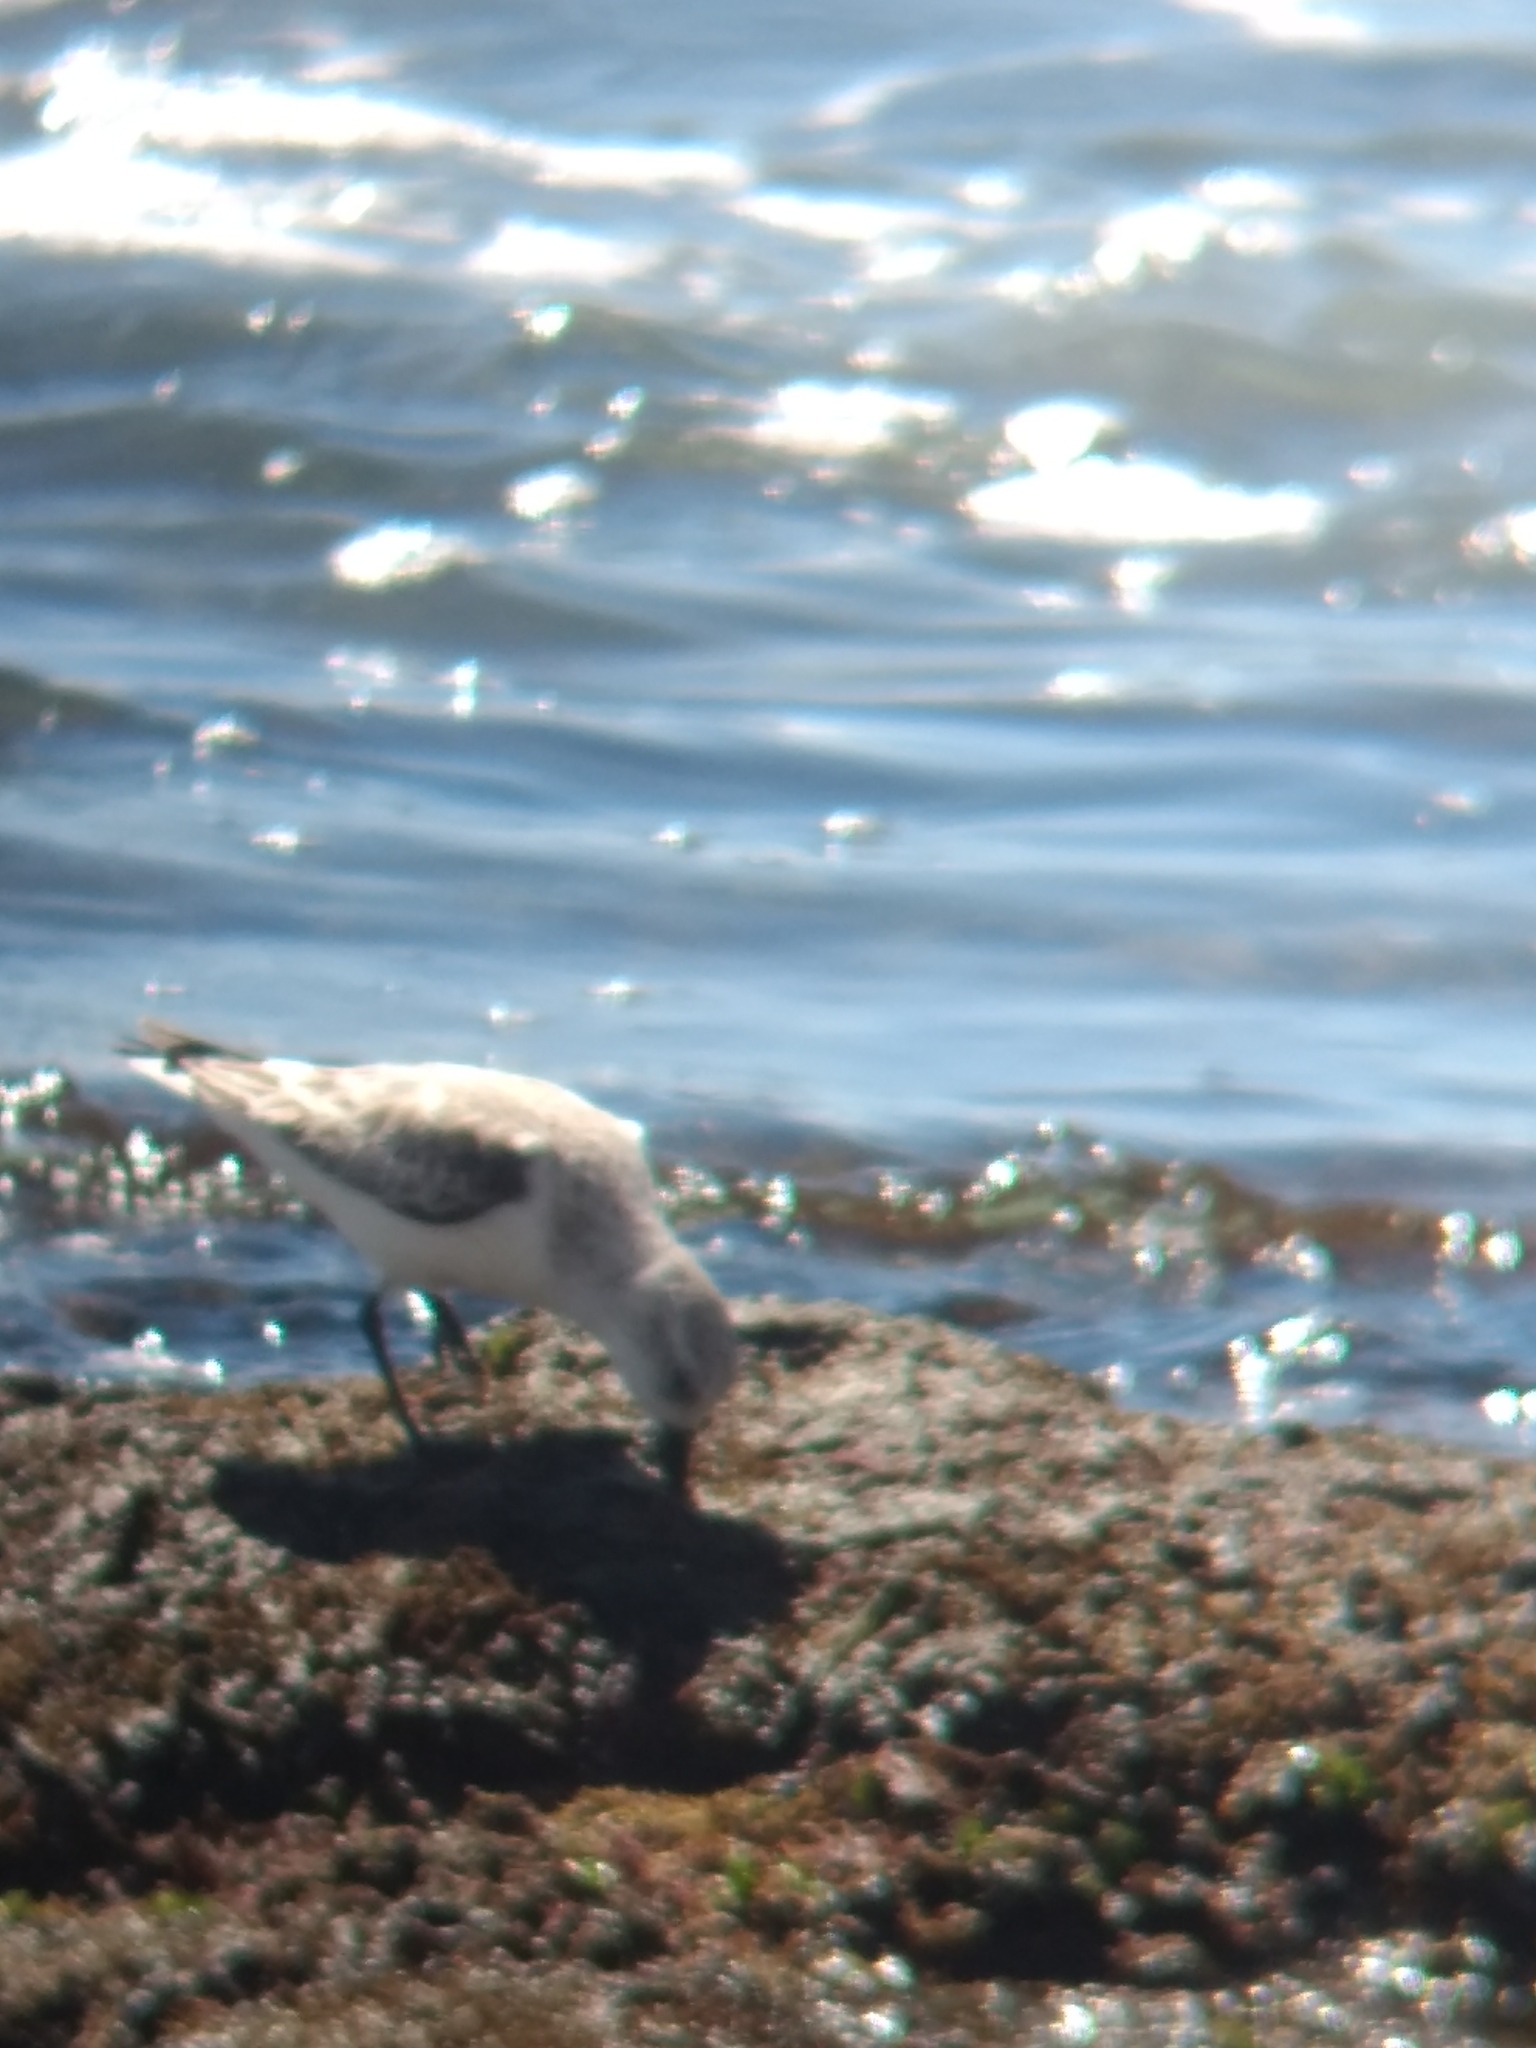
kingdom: Animalia
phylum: Chordata
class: Aves
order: Charadriiformes
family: Scolopacidae
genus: Calidris
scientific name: Calidris alba
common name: Sanderling
